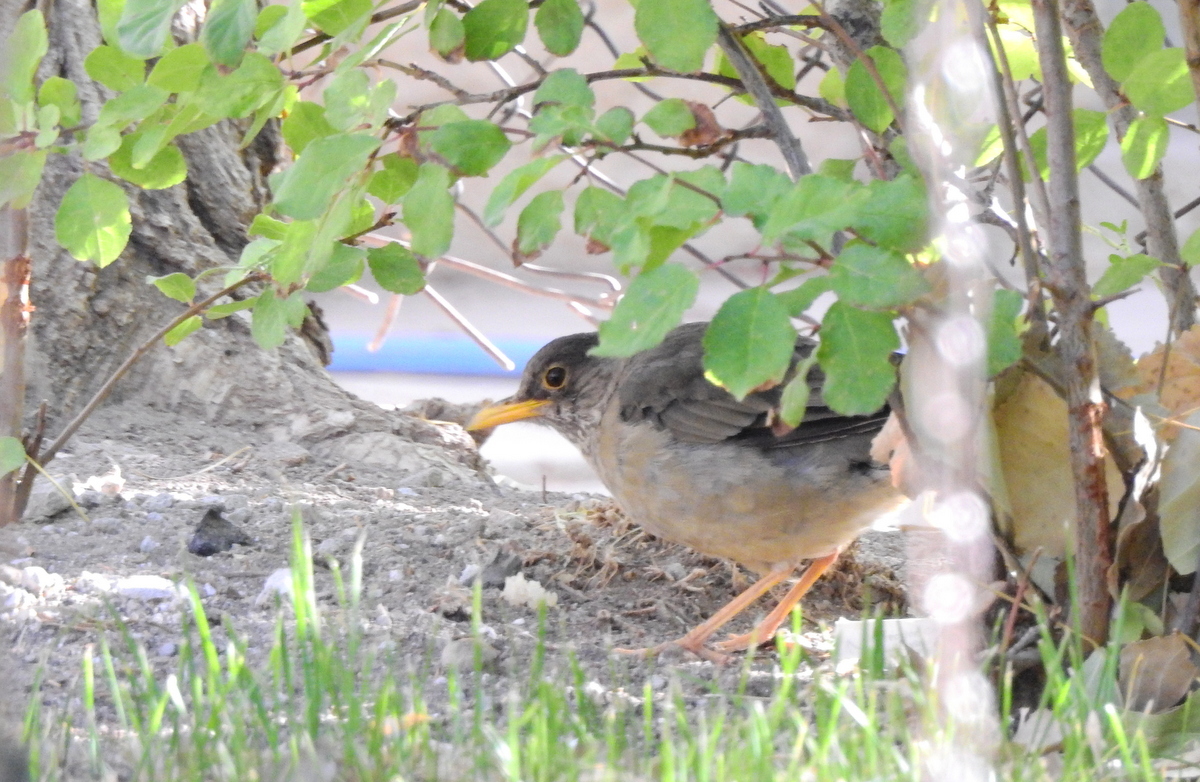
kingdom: Animalia
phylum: Chordata
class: Aves
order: Passeriformes
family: Turdidae
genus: Turdus
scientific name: Turdus falcklandii
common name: Austral thrush
